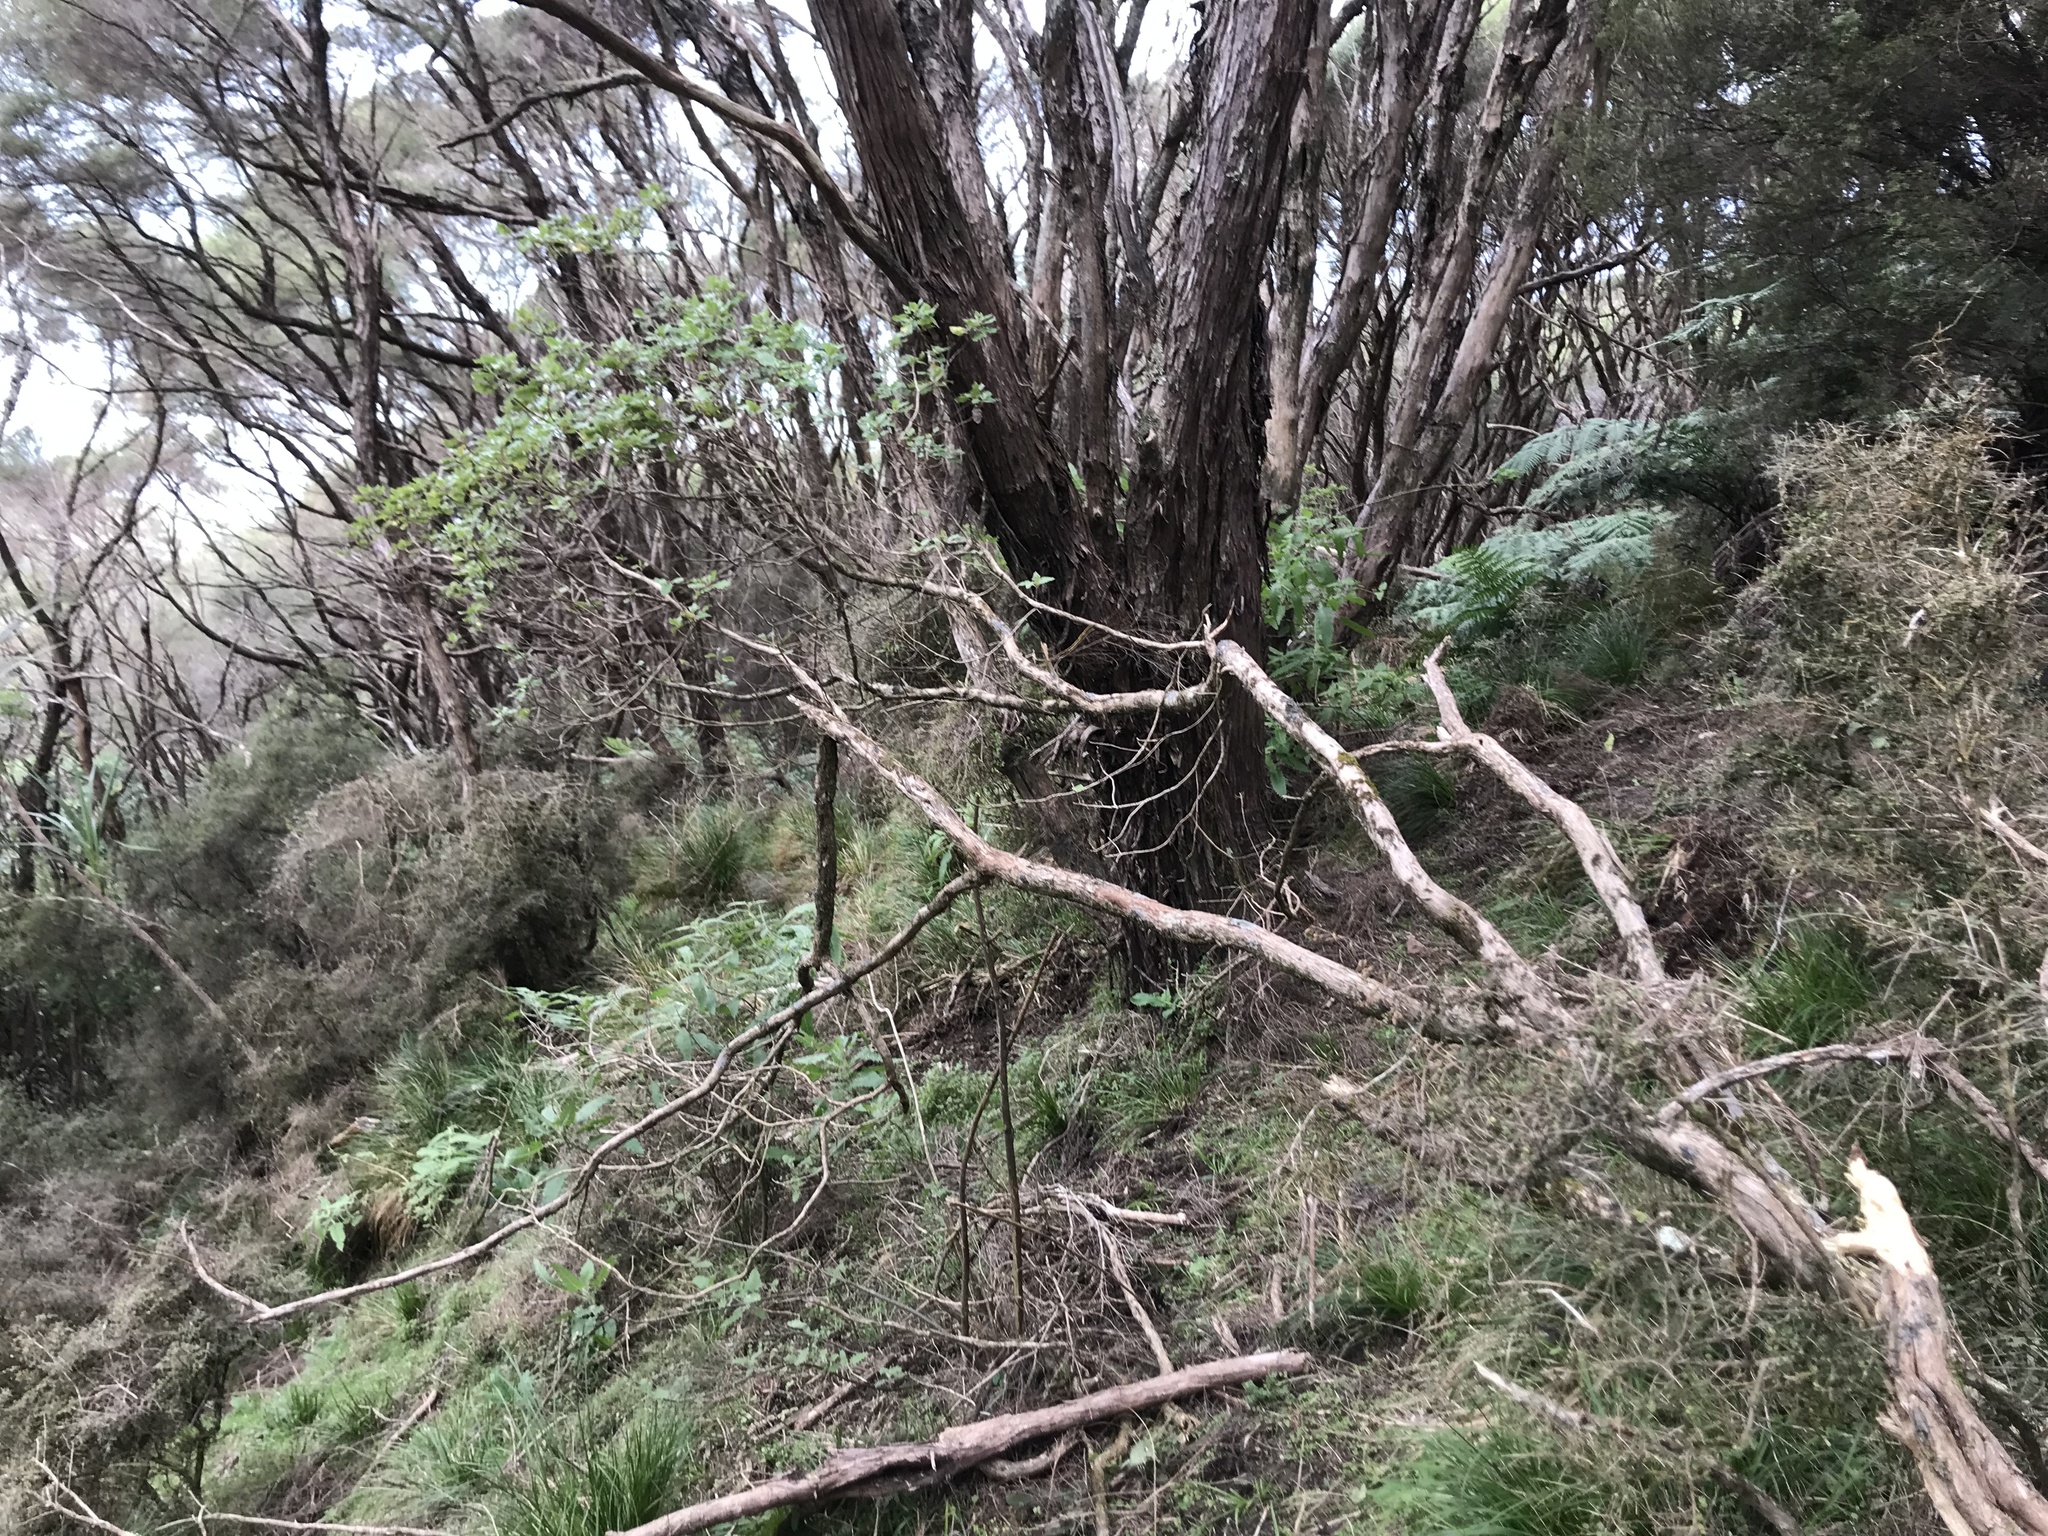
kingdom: Plantae
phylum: Tracheophyta
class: Magnoliopsida
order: Asterales
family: Asteraceae
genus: Brachyglottis
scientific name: Brachyglottis pentacopa
